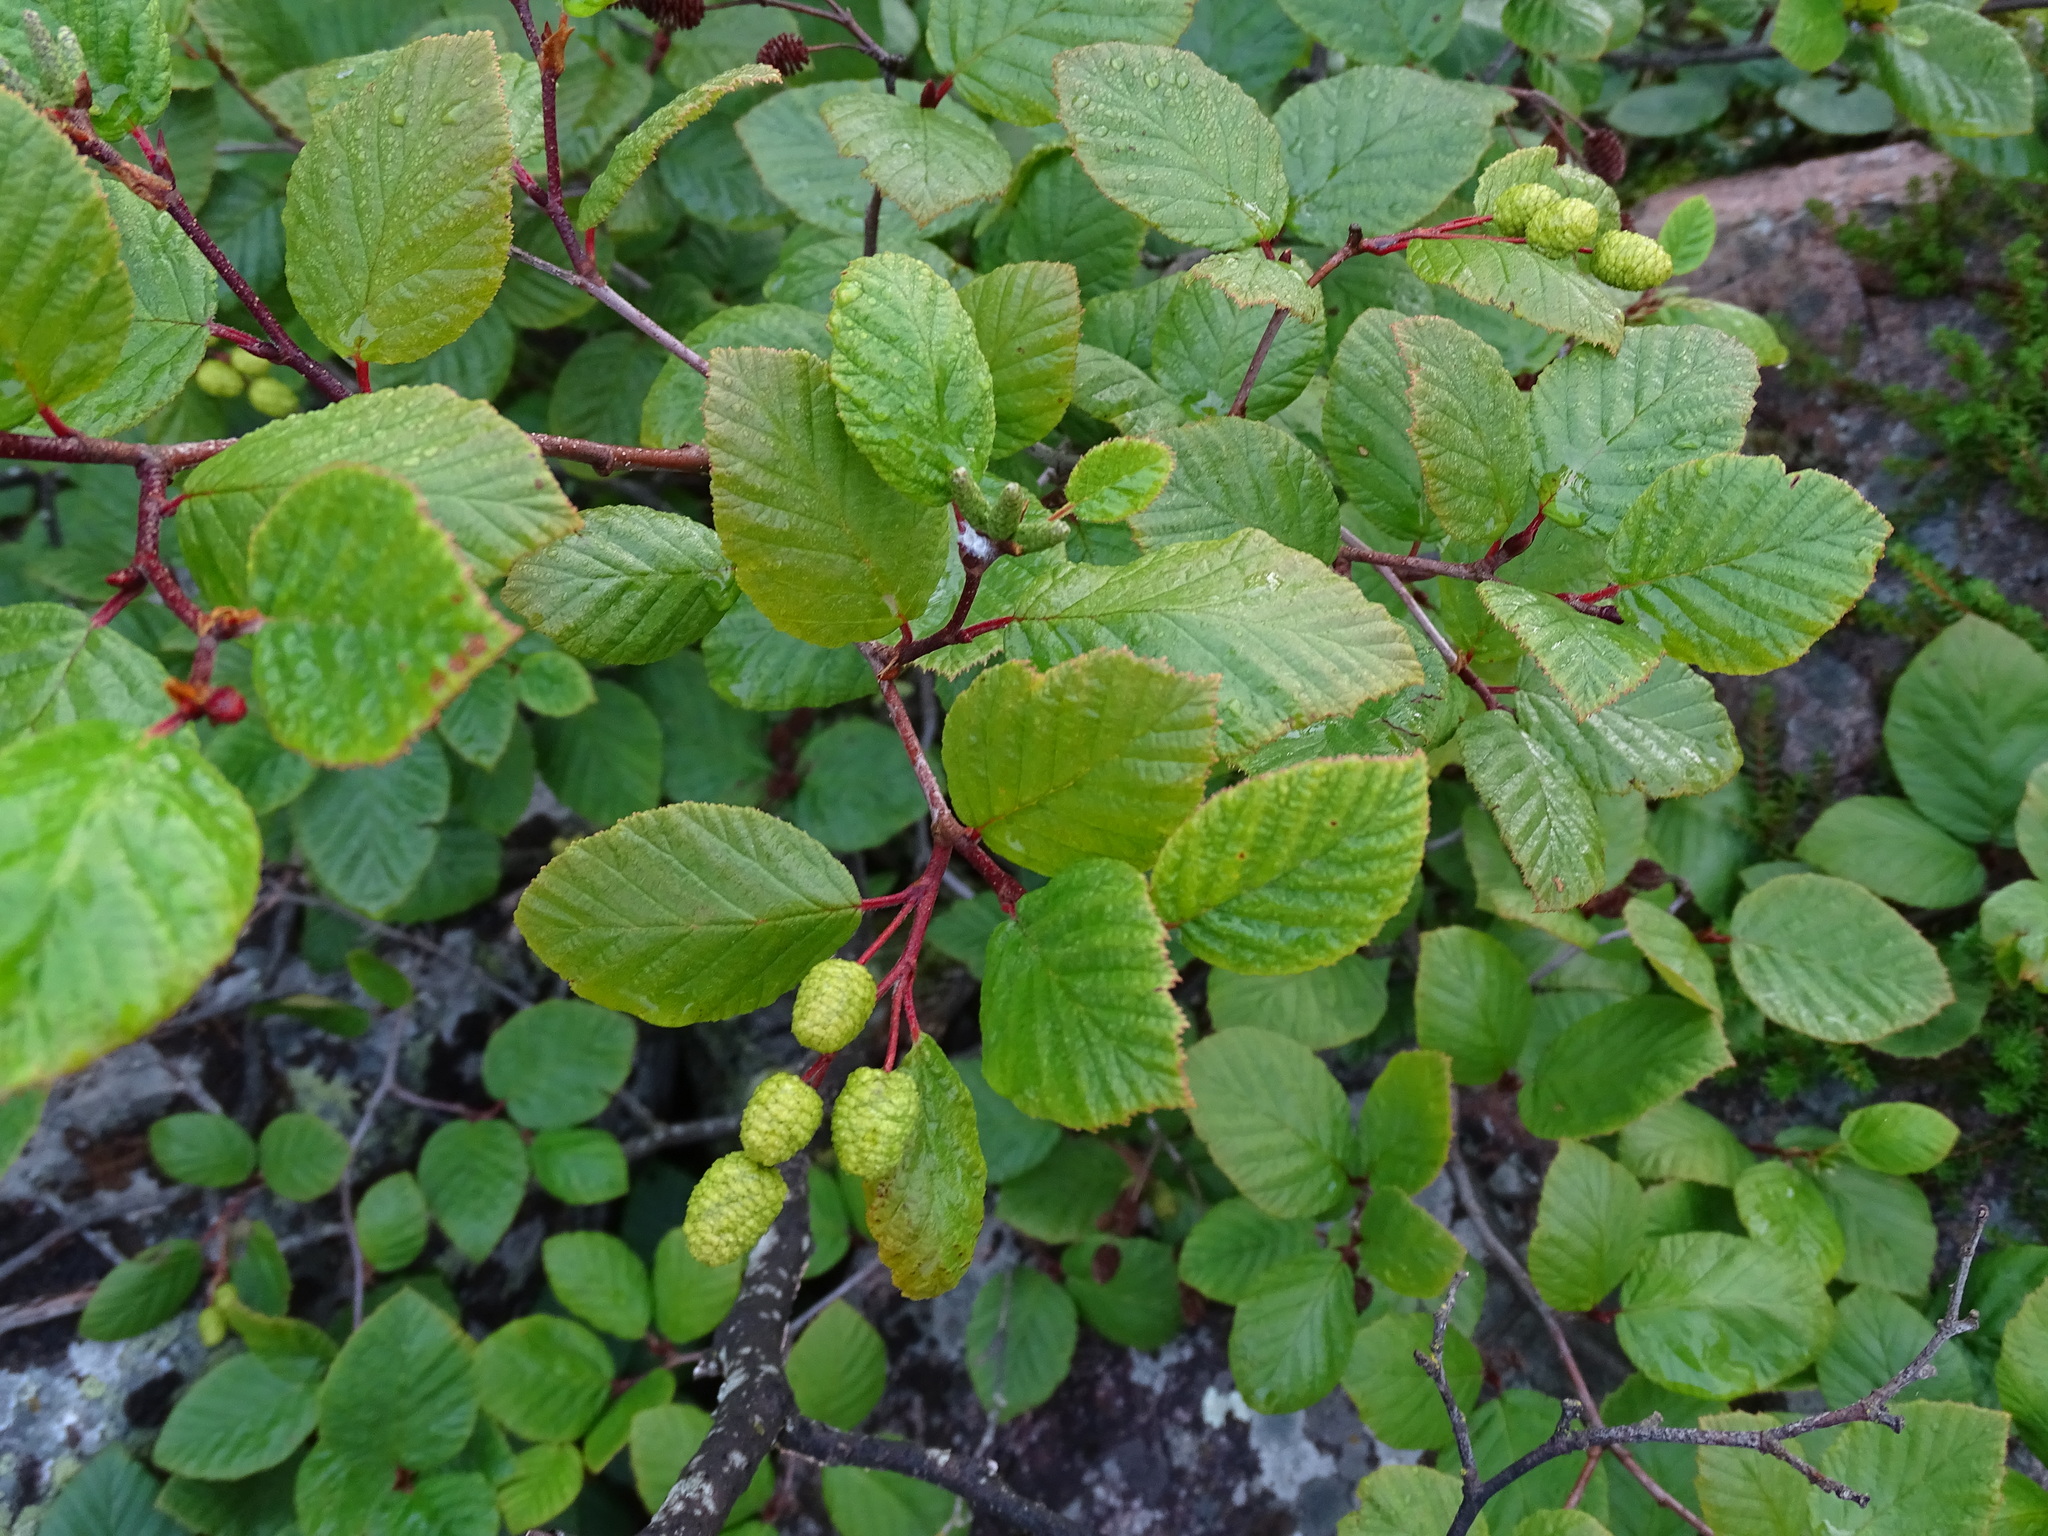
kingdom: Plantae
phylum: Tracheophyta
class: Magnoliopsida
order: Fagales
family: Betulaceae
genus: Alnus
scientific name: Alnus alnobetula
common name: Green alder
